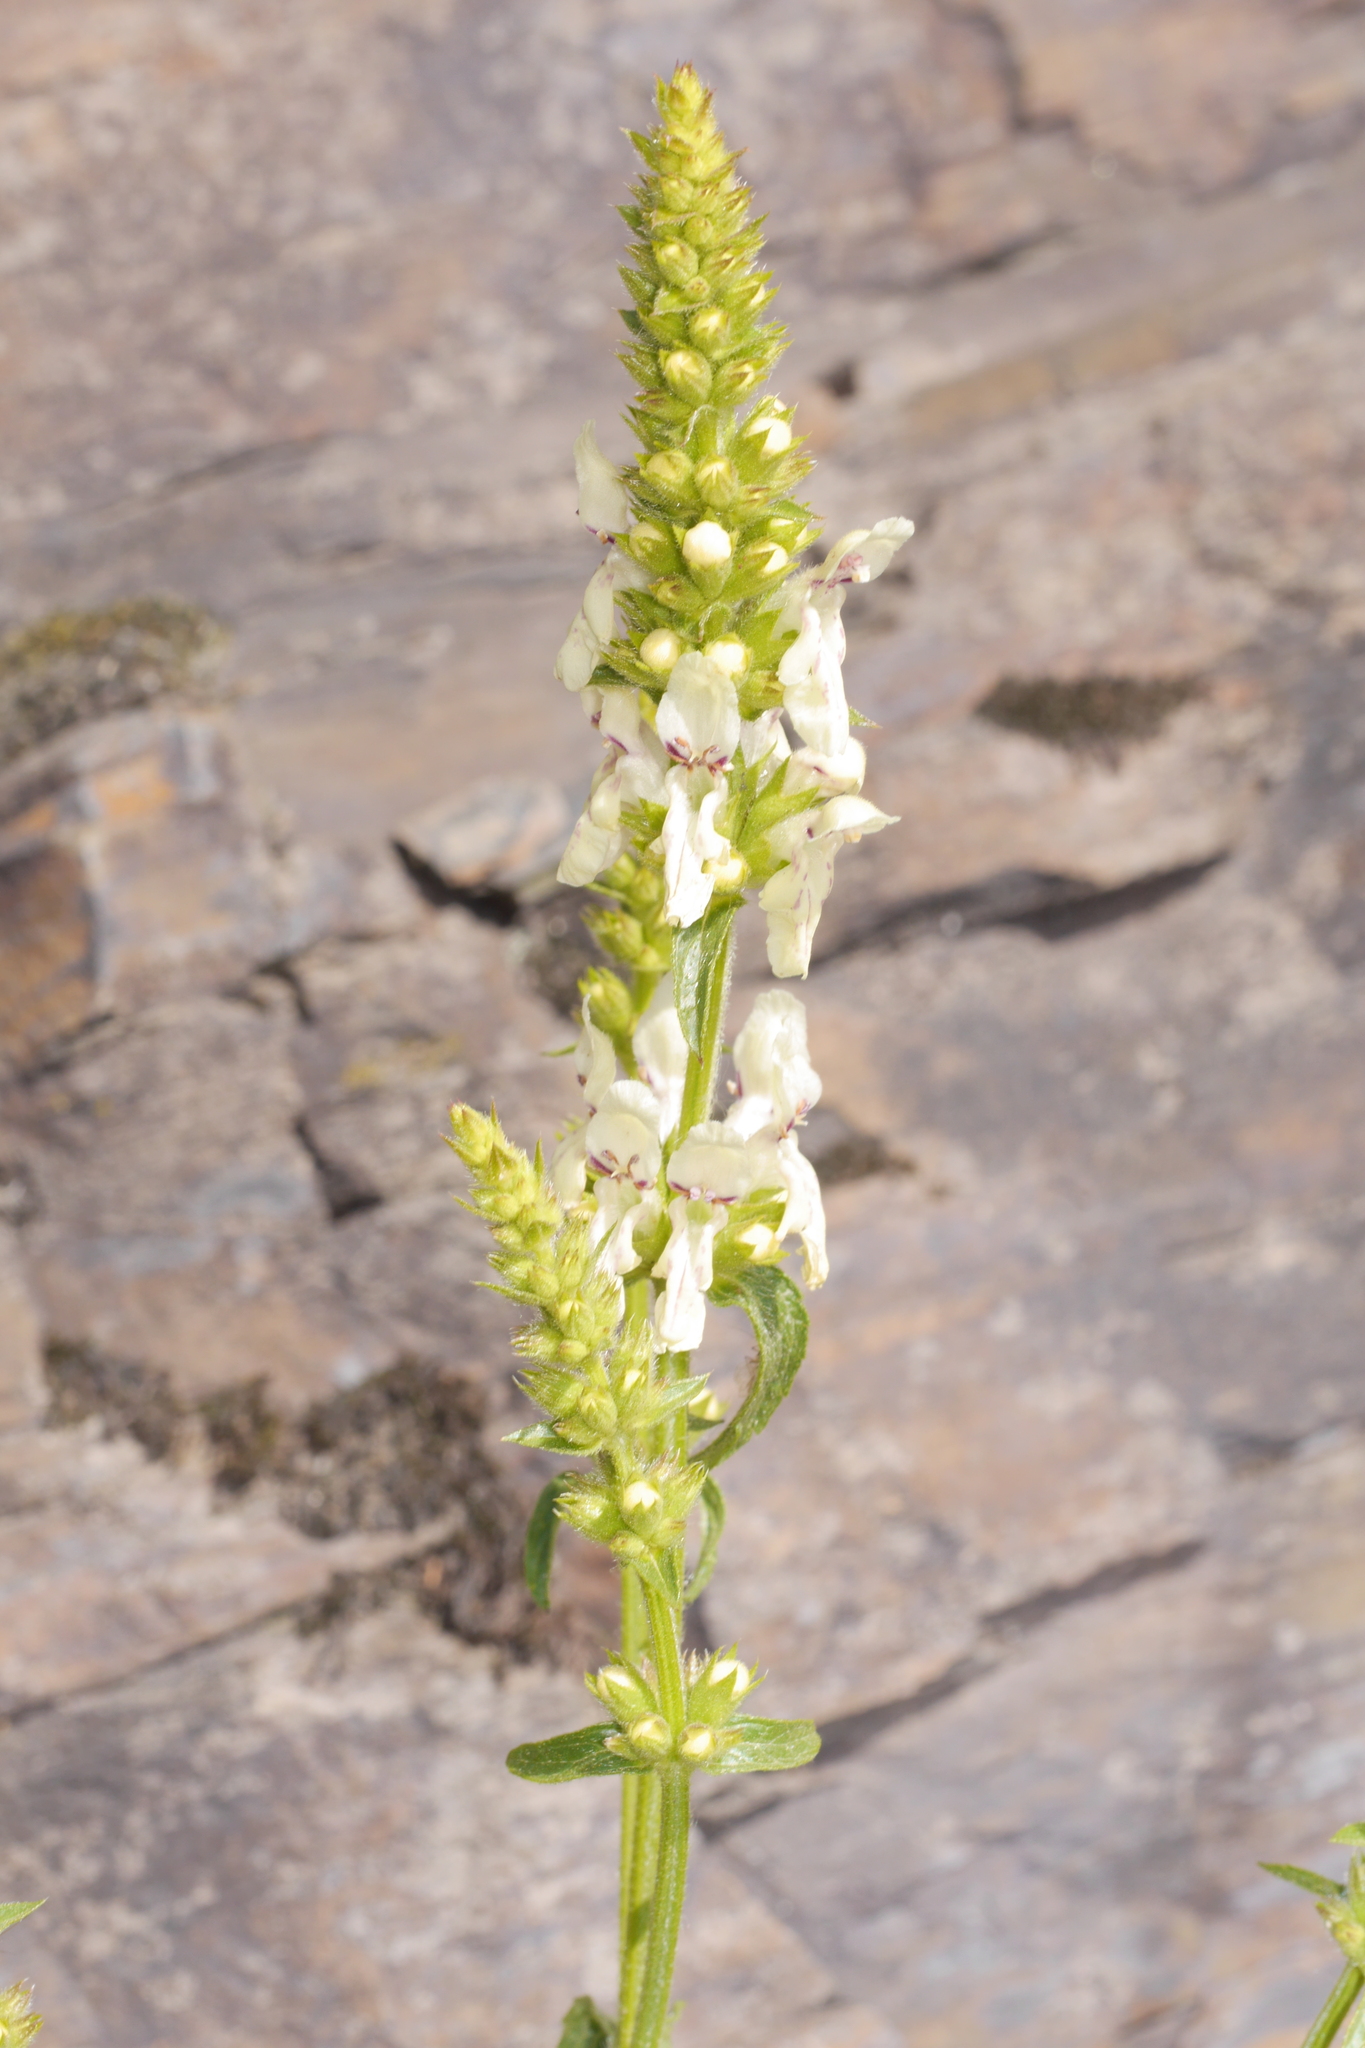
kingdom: Plantae
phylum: Tracheophyta
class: Magnoliopsida
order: Lamiales
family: Lamiaceae
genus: Stachys
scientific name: Stachys recta
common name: Perennial yellow-woundwort
